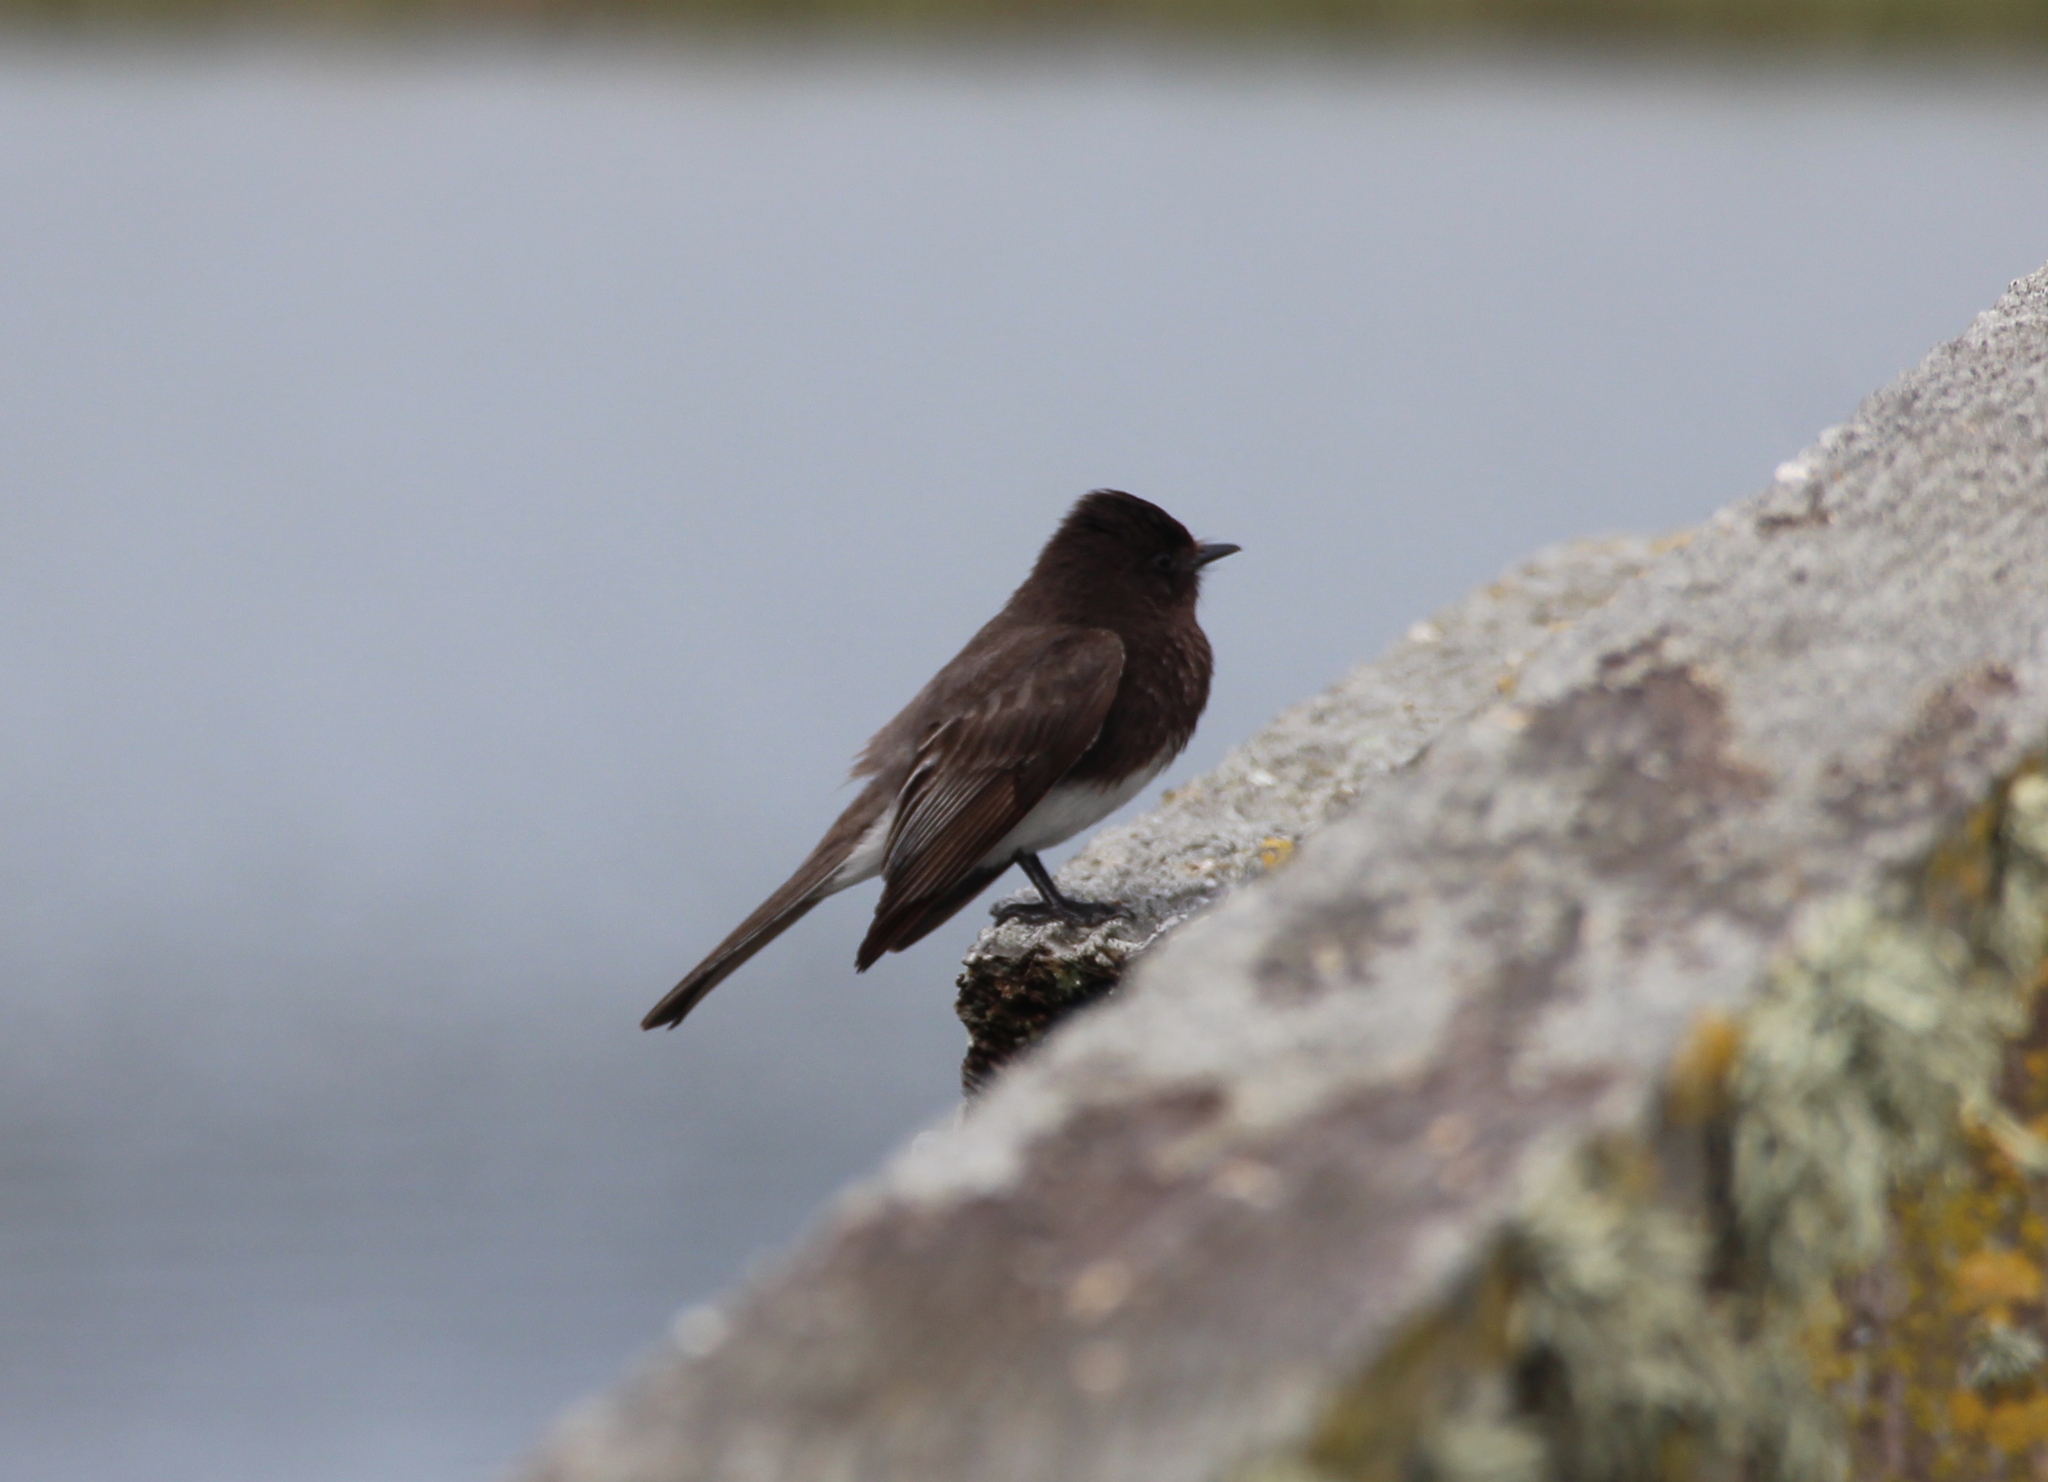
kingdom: Animalia
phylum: Chordata
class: Aves
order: Passeriformes
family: Tyrannidae
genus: Sayornis
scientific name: Sayornis nigricans
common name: Black phoebe
